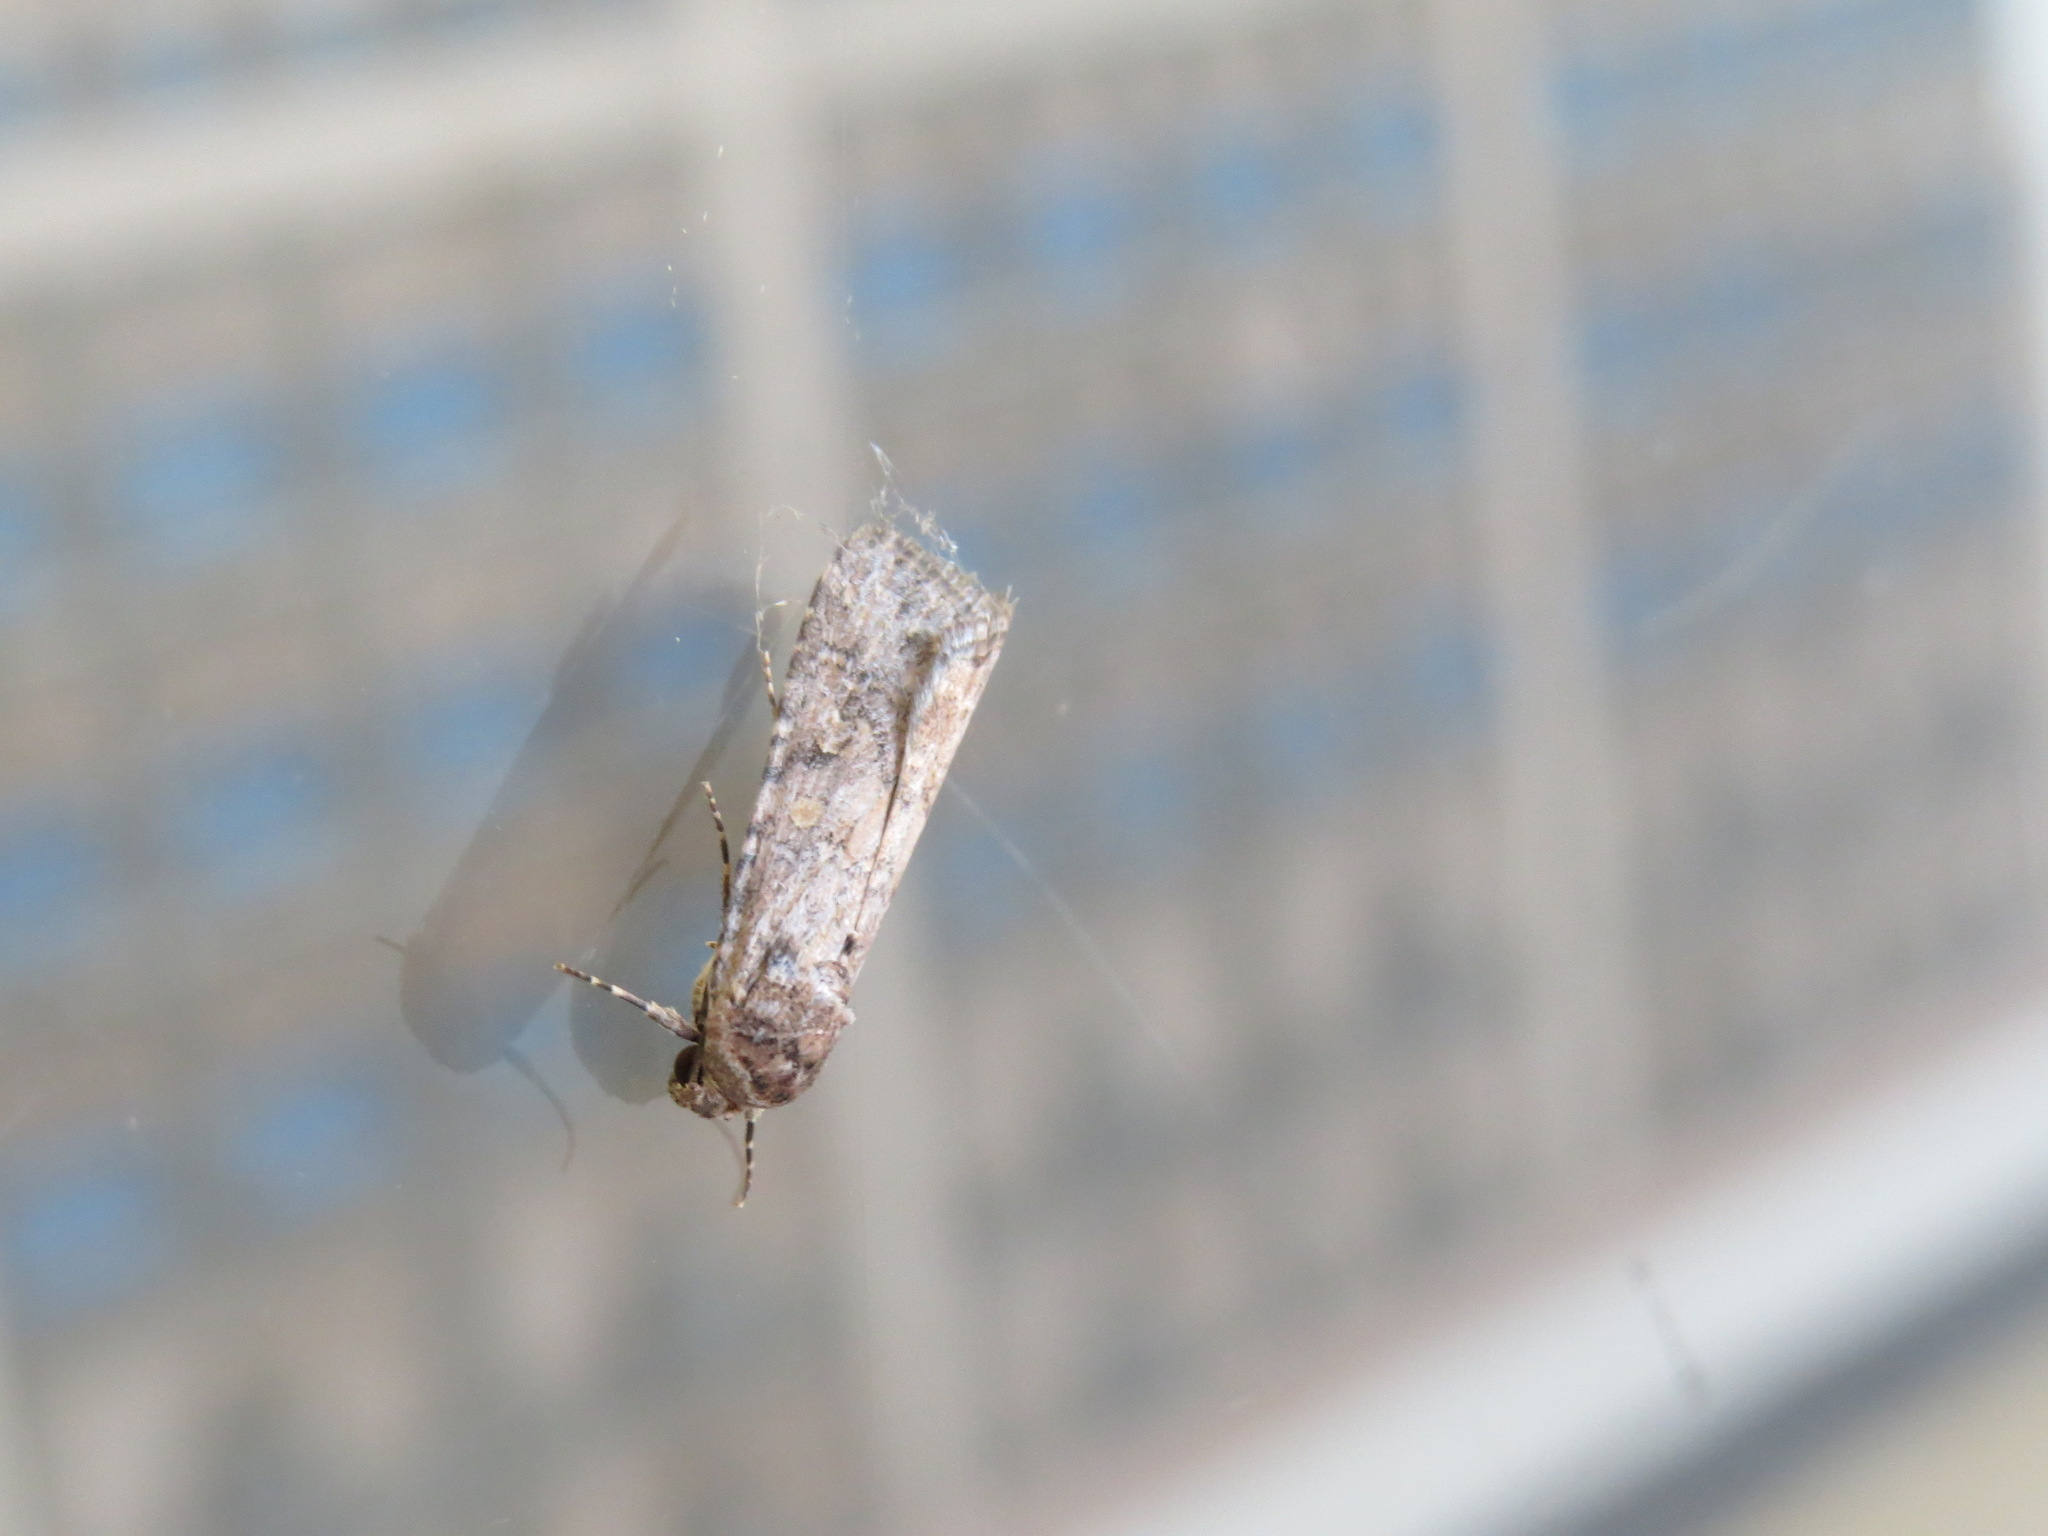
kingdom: Animalia
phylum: Arthropoda
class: Insecta
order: Lepidoptera
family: Noctuidae
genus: Spodoptera
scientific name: Spodoptera exigua
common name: Beet armyworm
